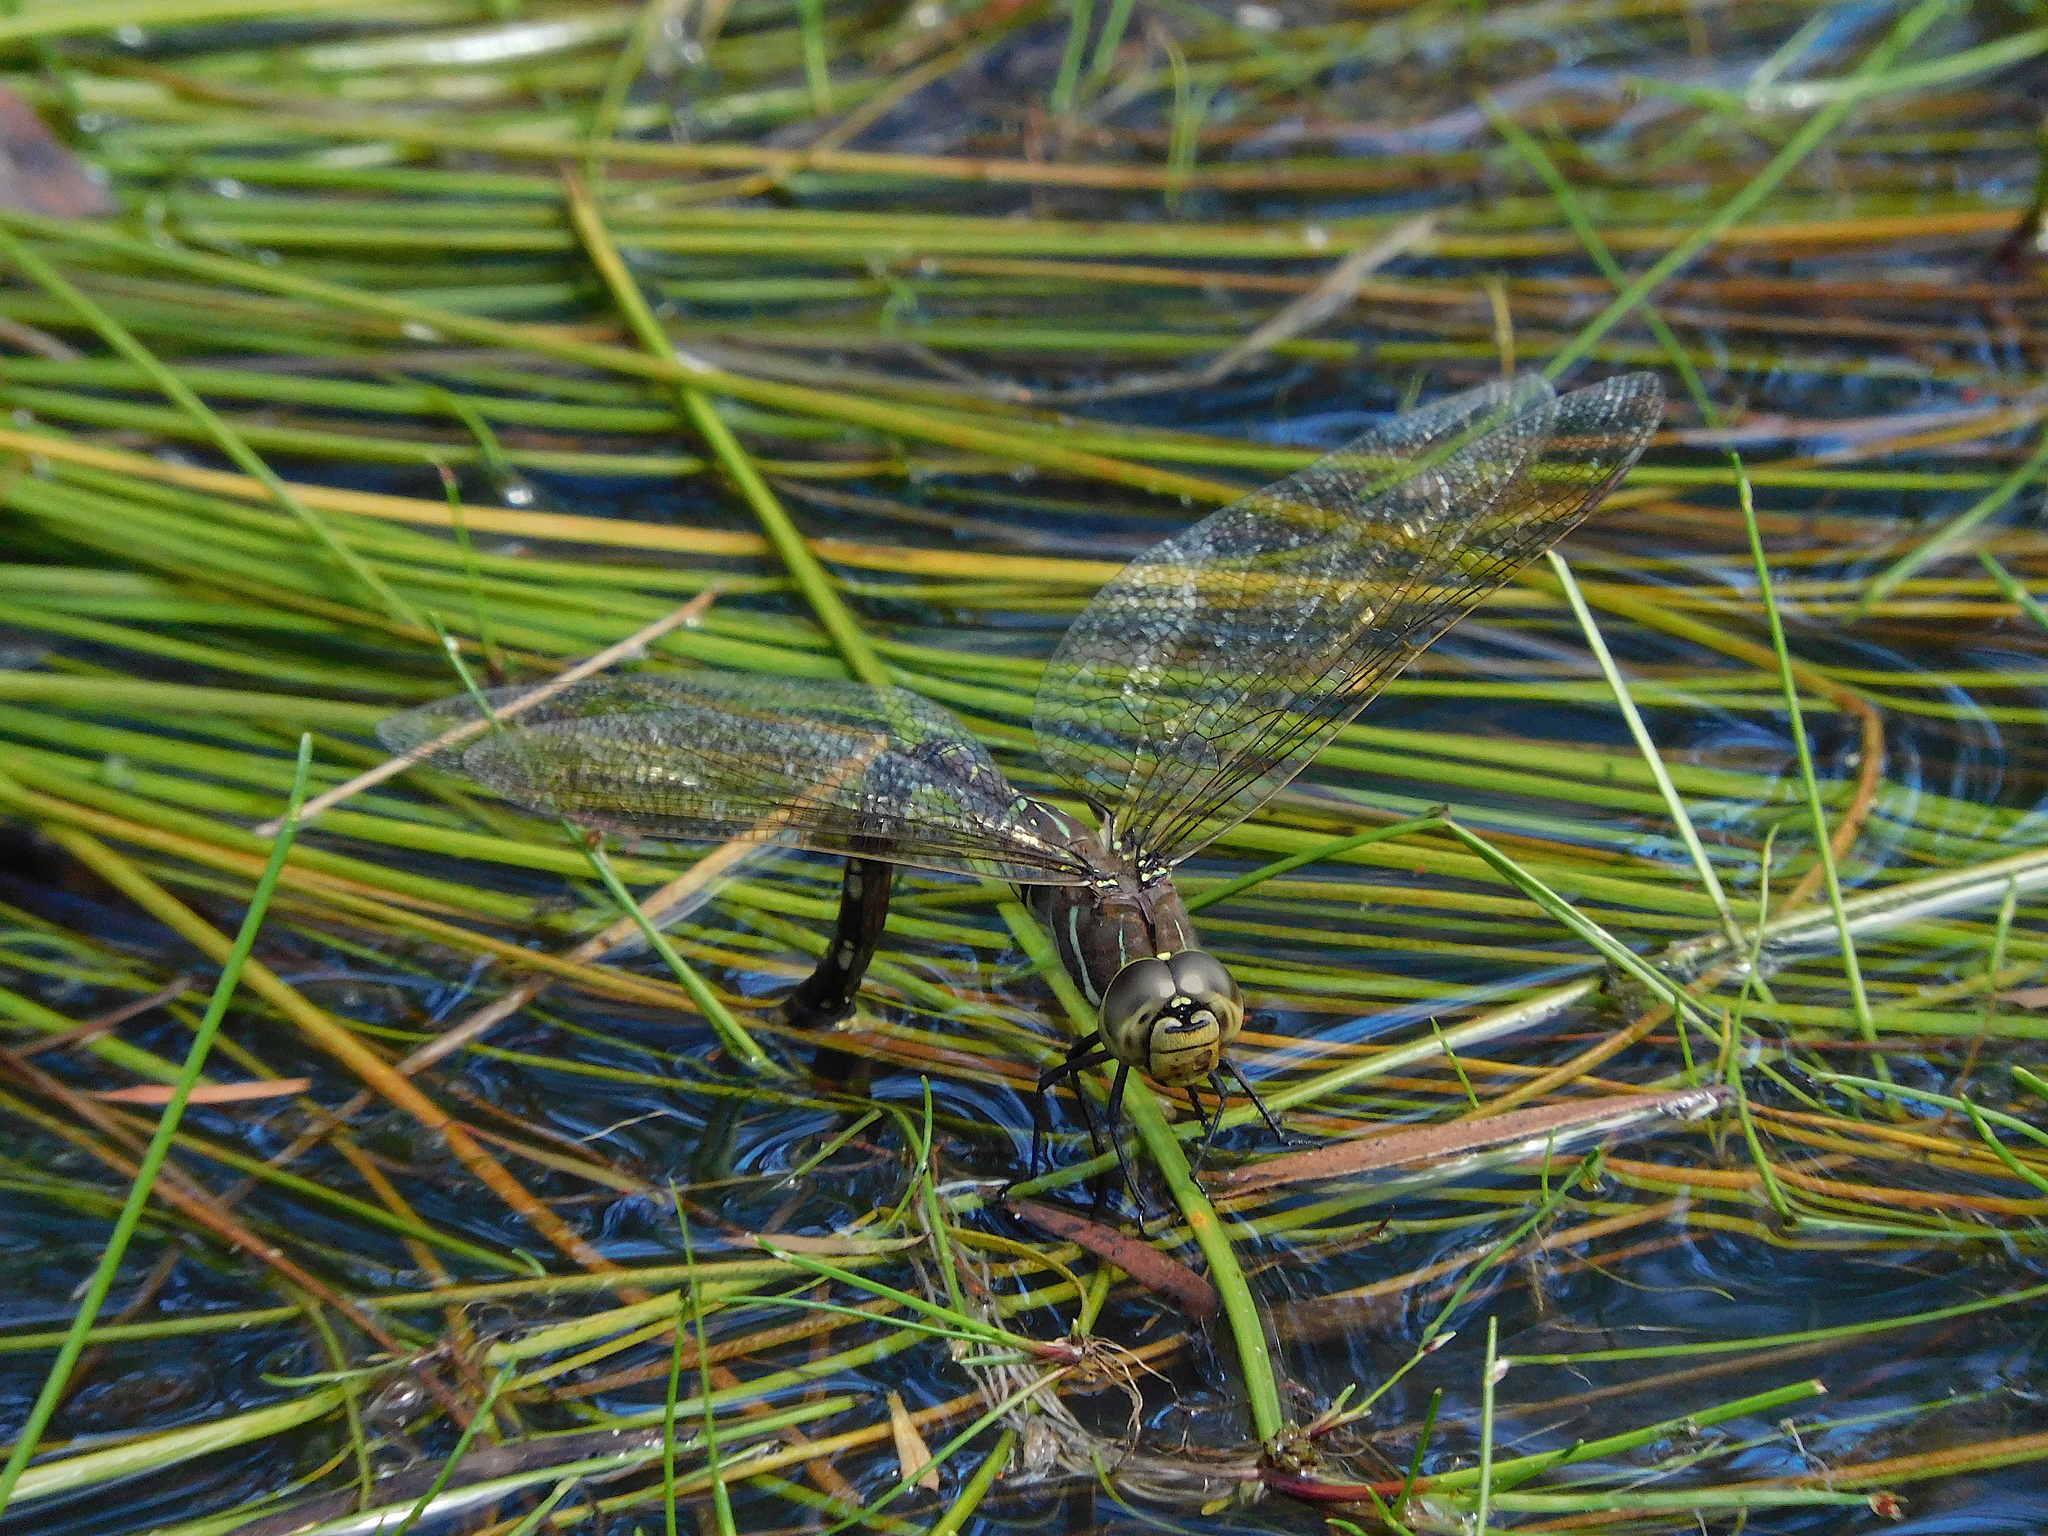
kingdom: Animalia
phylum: Arthropoda
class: Insecta
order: Odonata
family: Aeshnidae
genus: Aeshna
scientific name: Aeshna brevistyla
